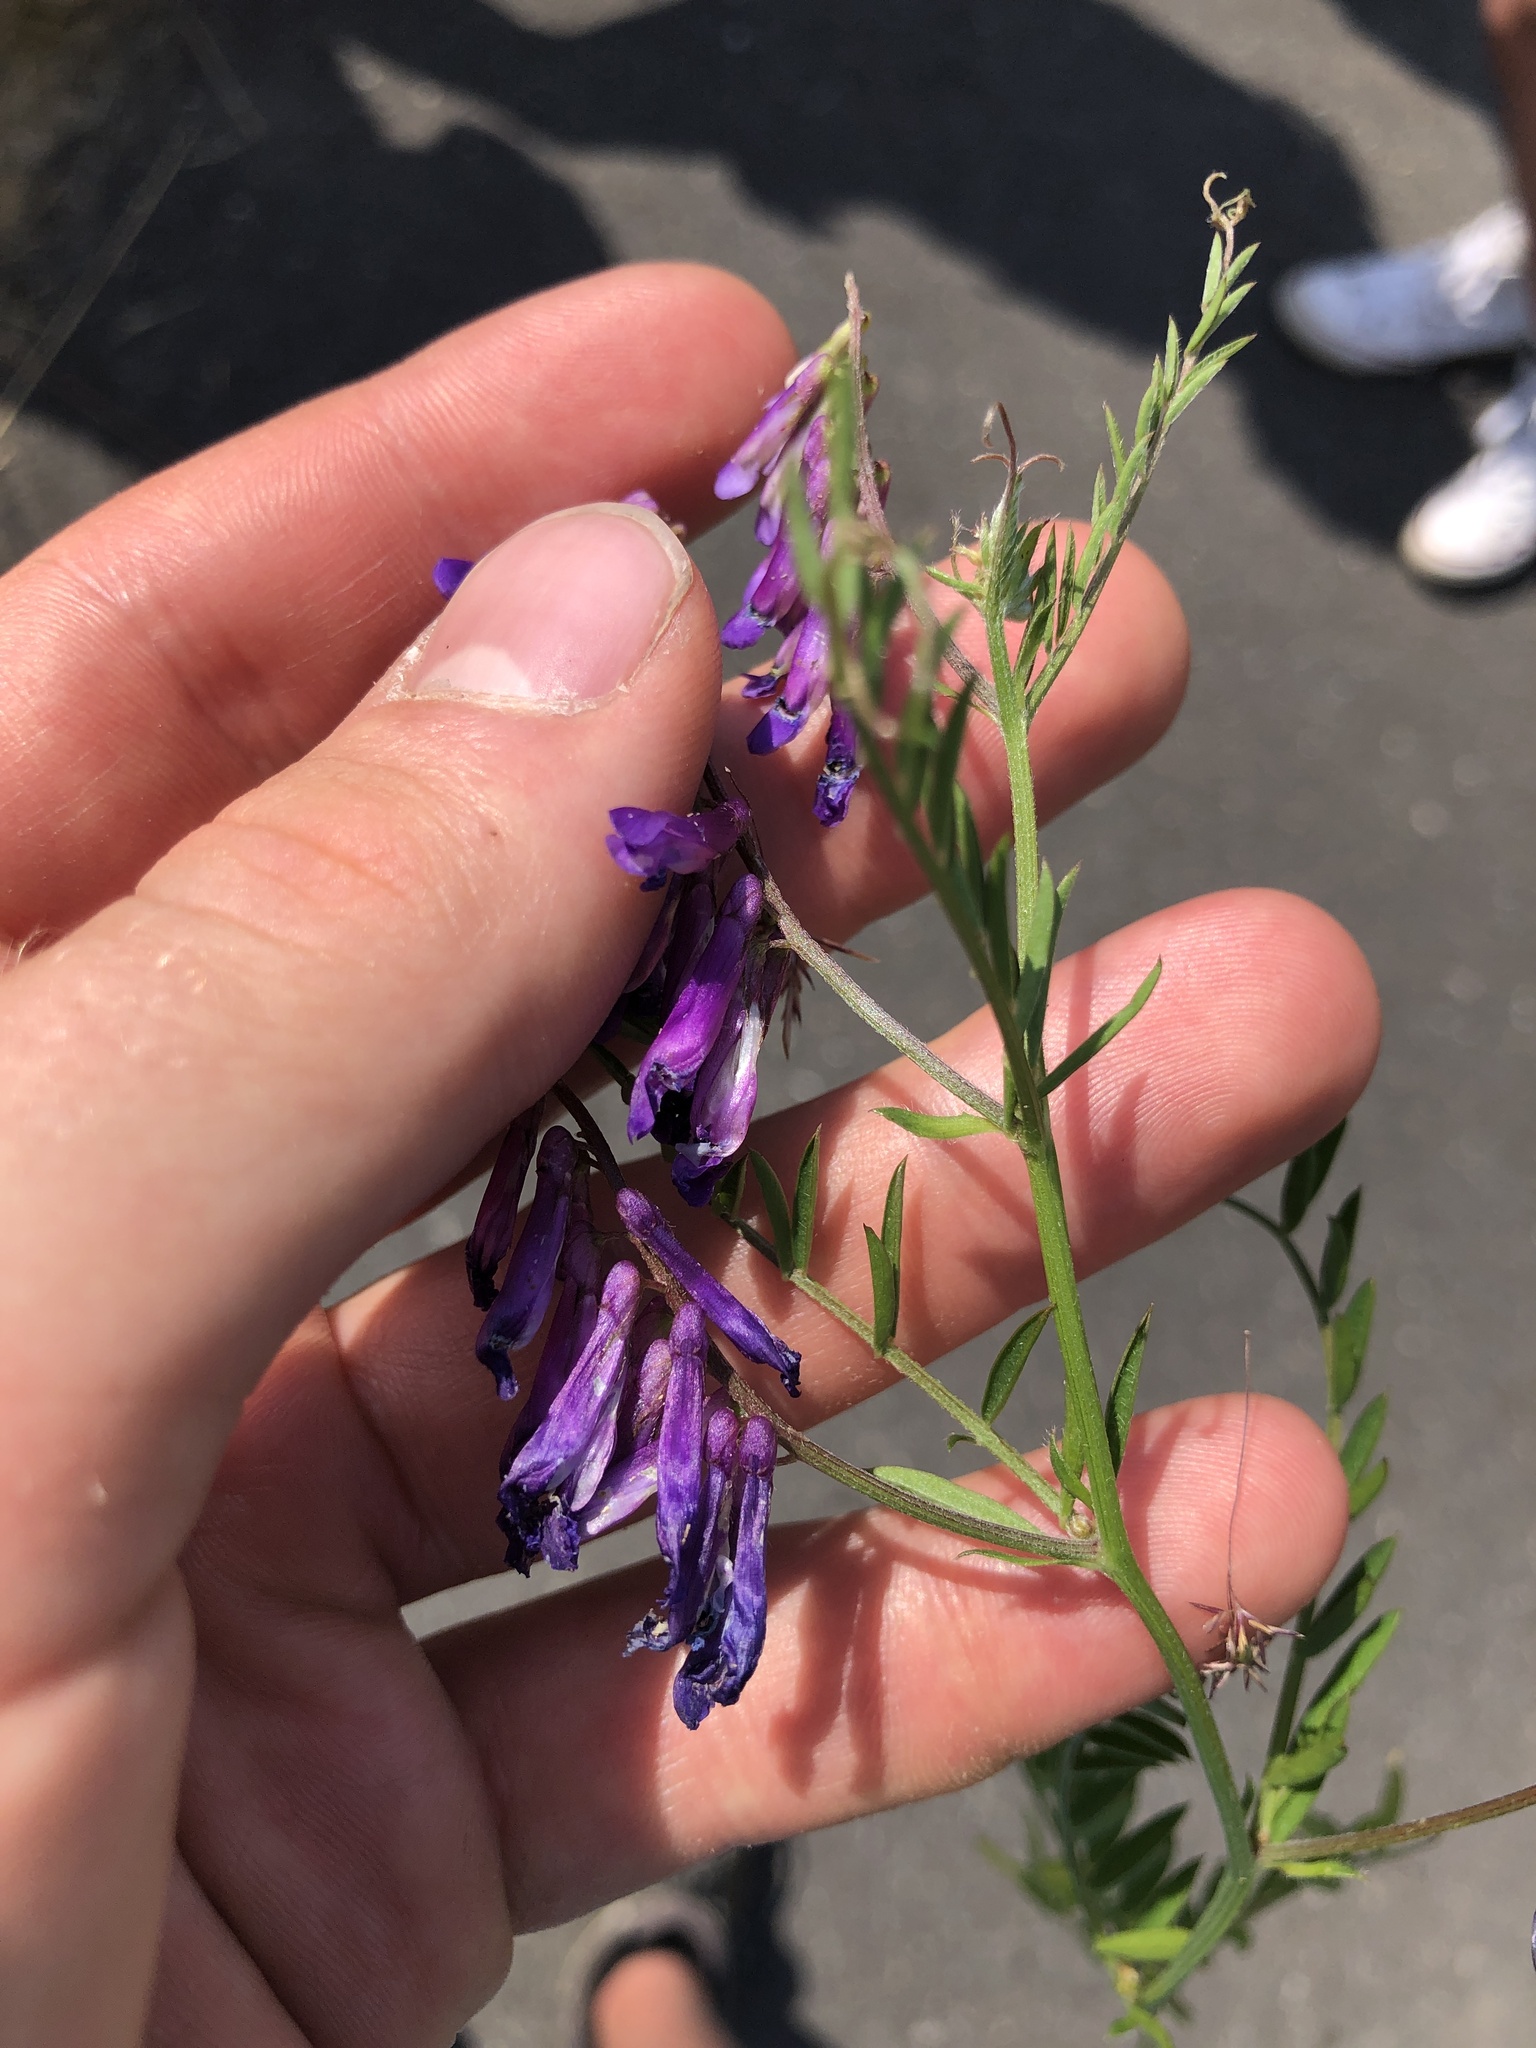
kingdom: Plantae
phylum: Tracheophyta
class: Magnoliopsida
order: Fabales
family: Fabaceae
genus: Vicia
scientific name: Vicia villosa
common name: Fodder vetch
